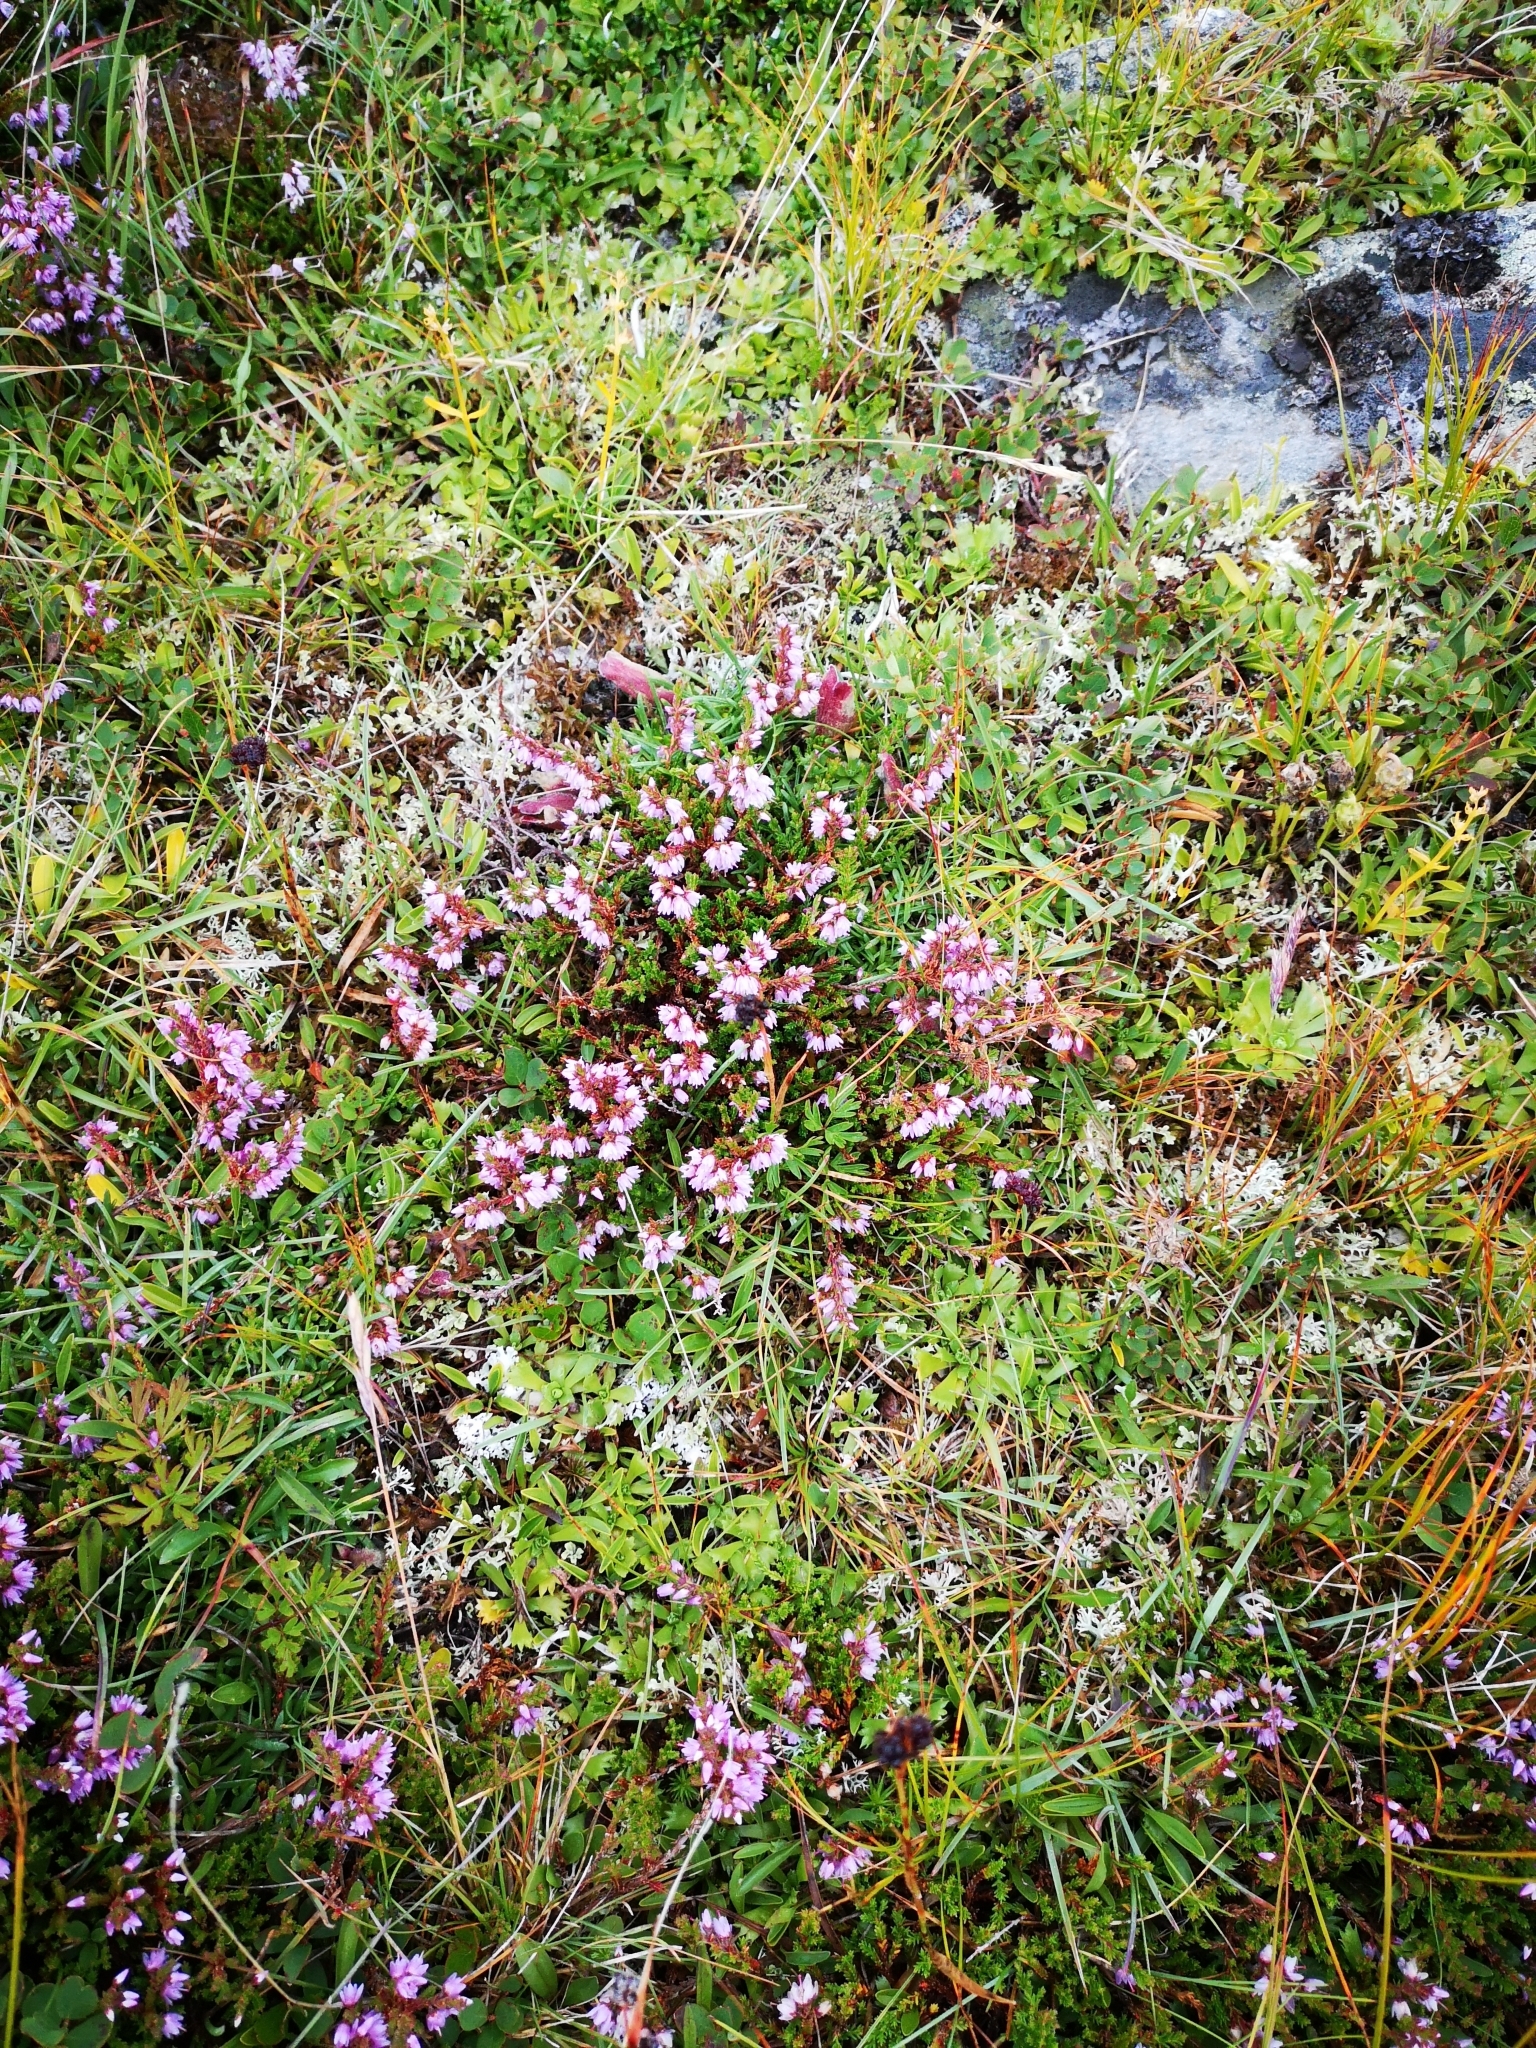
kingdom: Plantae
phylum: Tracheophyta
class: Magnoliopsida
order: Ericales
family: Ericaceae
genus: Calluna
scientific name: Calluna vulgaris
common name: Heather
